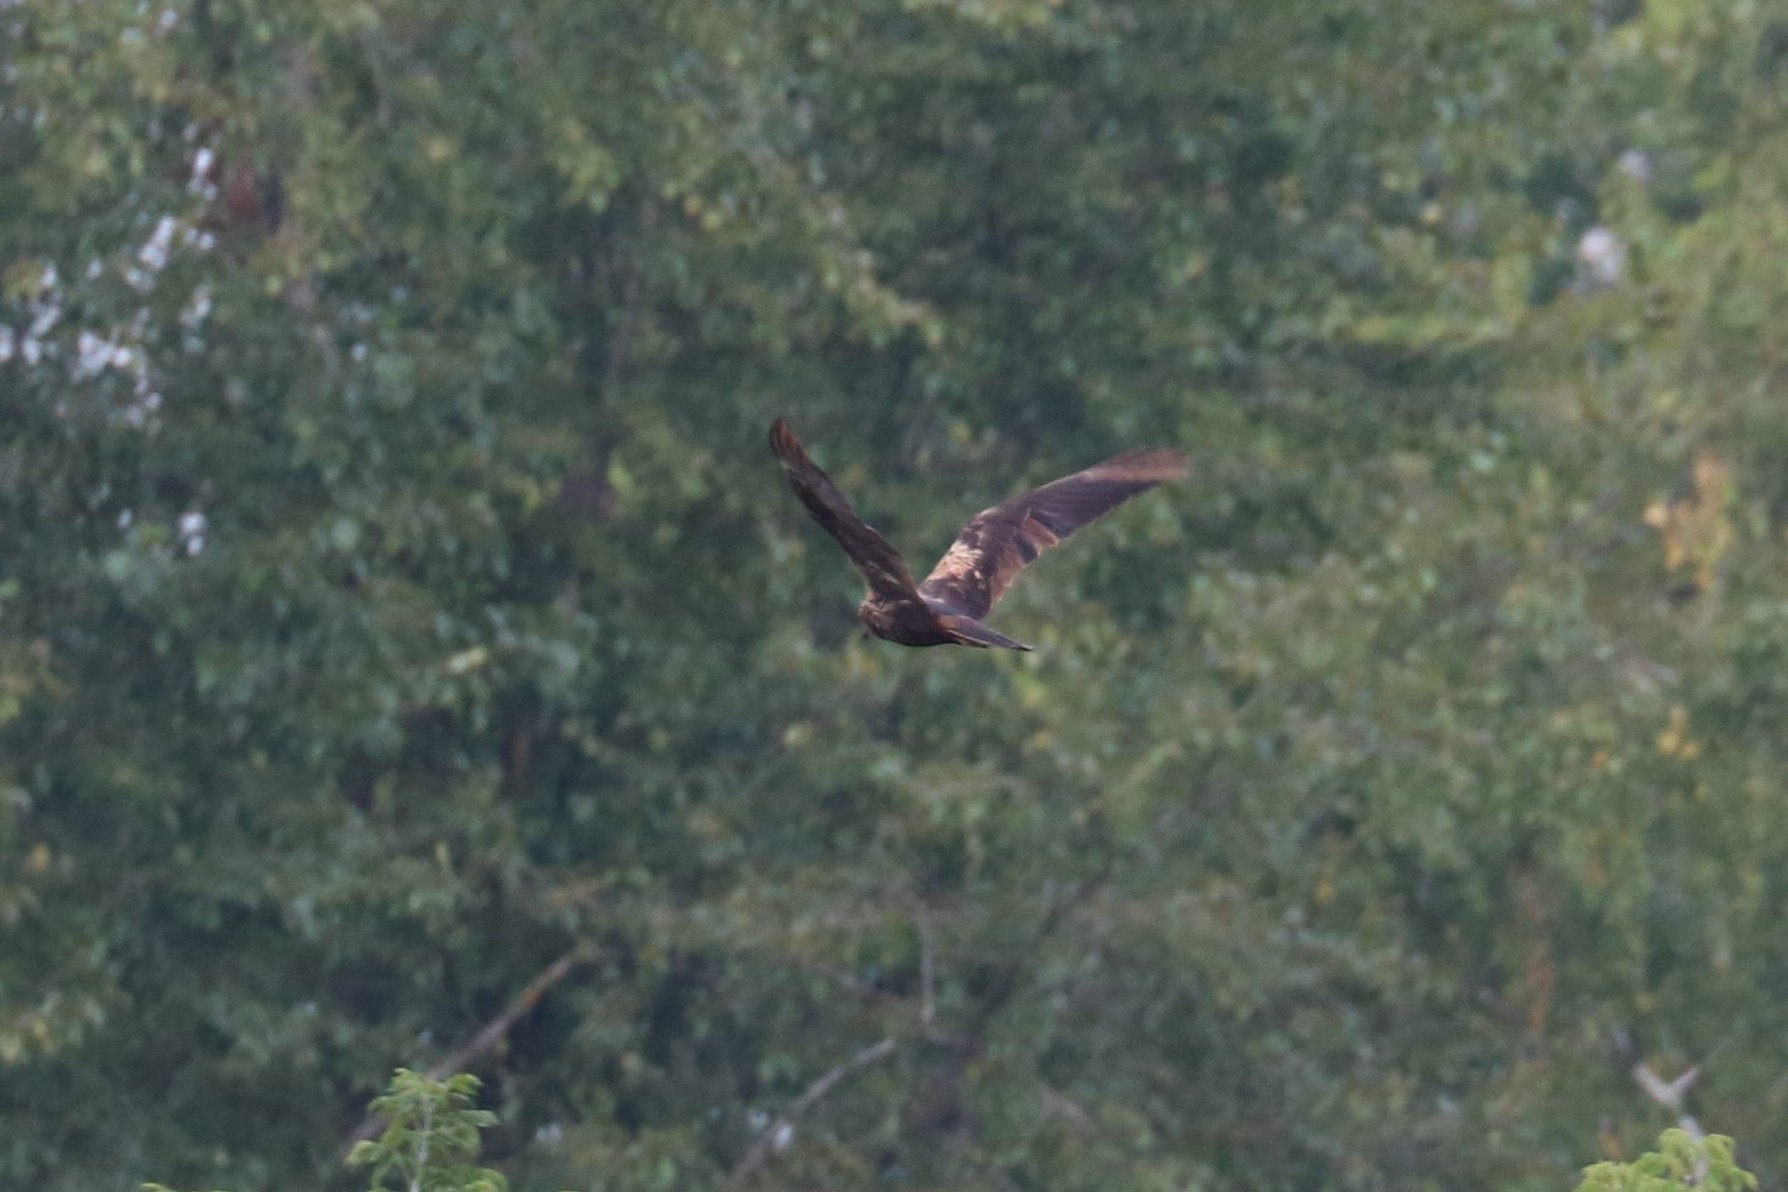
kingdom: Animalia
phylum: Chordata
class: Aves
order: Accipitriformes
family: Accipitridae
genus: Circus
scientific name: Circus aeruginosus
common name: Western marsh harrier
